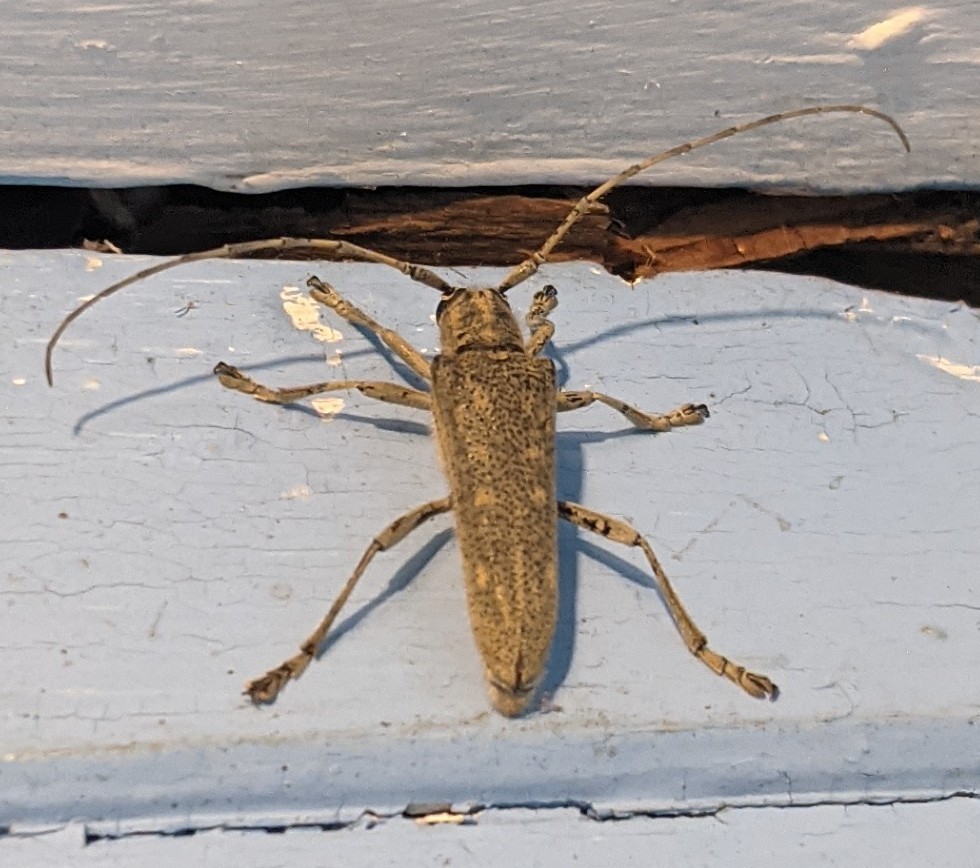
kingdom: Animalia
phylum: Arthropoda
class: Insecta
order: Coleoptera
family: Cerambycidae
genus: Saperda
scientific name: Saperda calcarata
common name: Poplar borer
